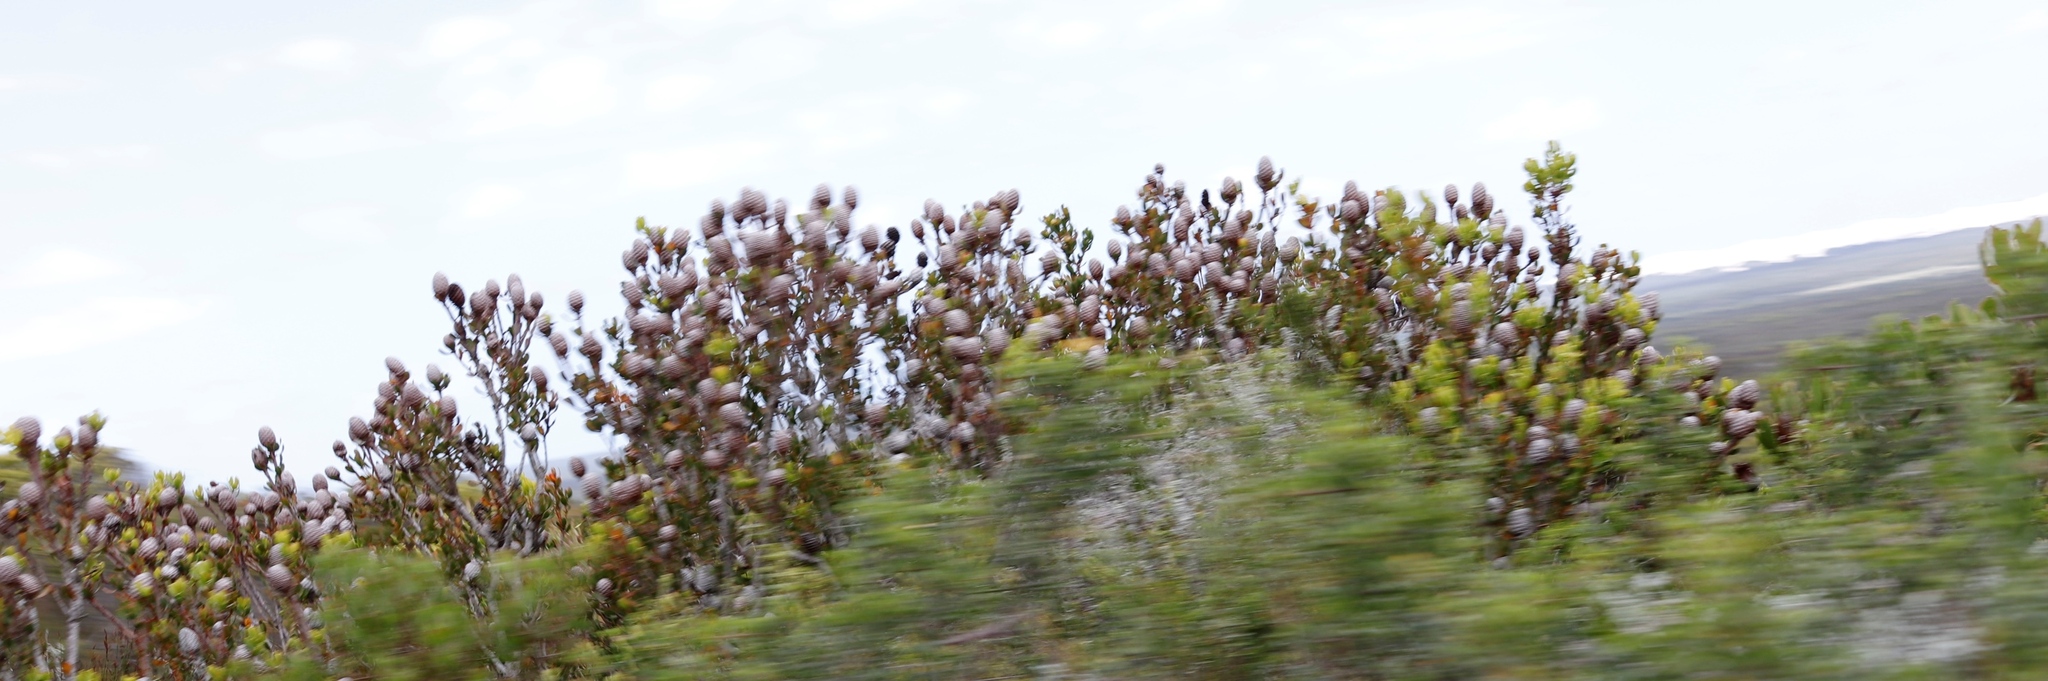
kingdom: Plantae
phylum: Tracheophyta
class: Magnoliopsida
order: Proteales
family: Proteaceae
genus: Leucadendron
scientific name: Leucadendron muirii
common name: Silver-ball conebush
